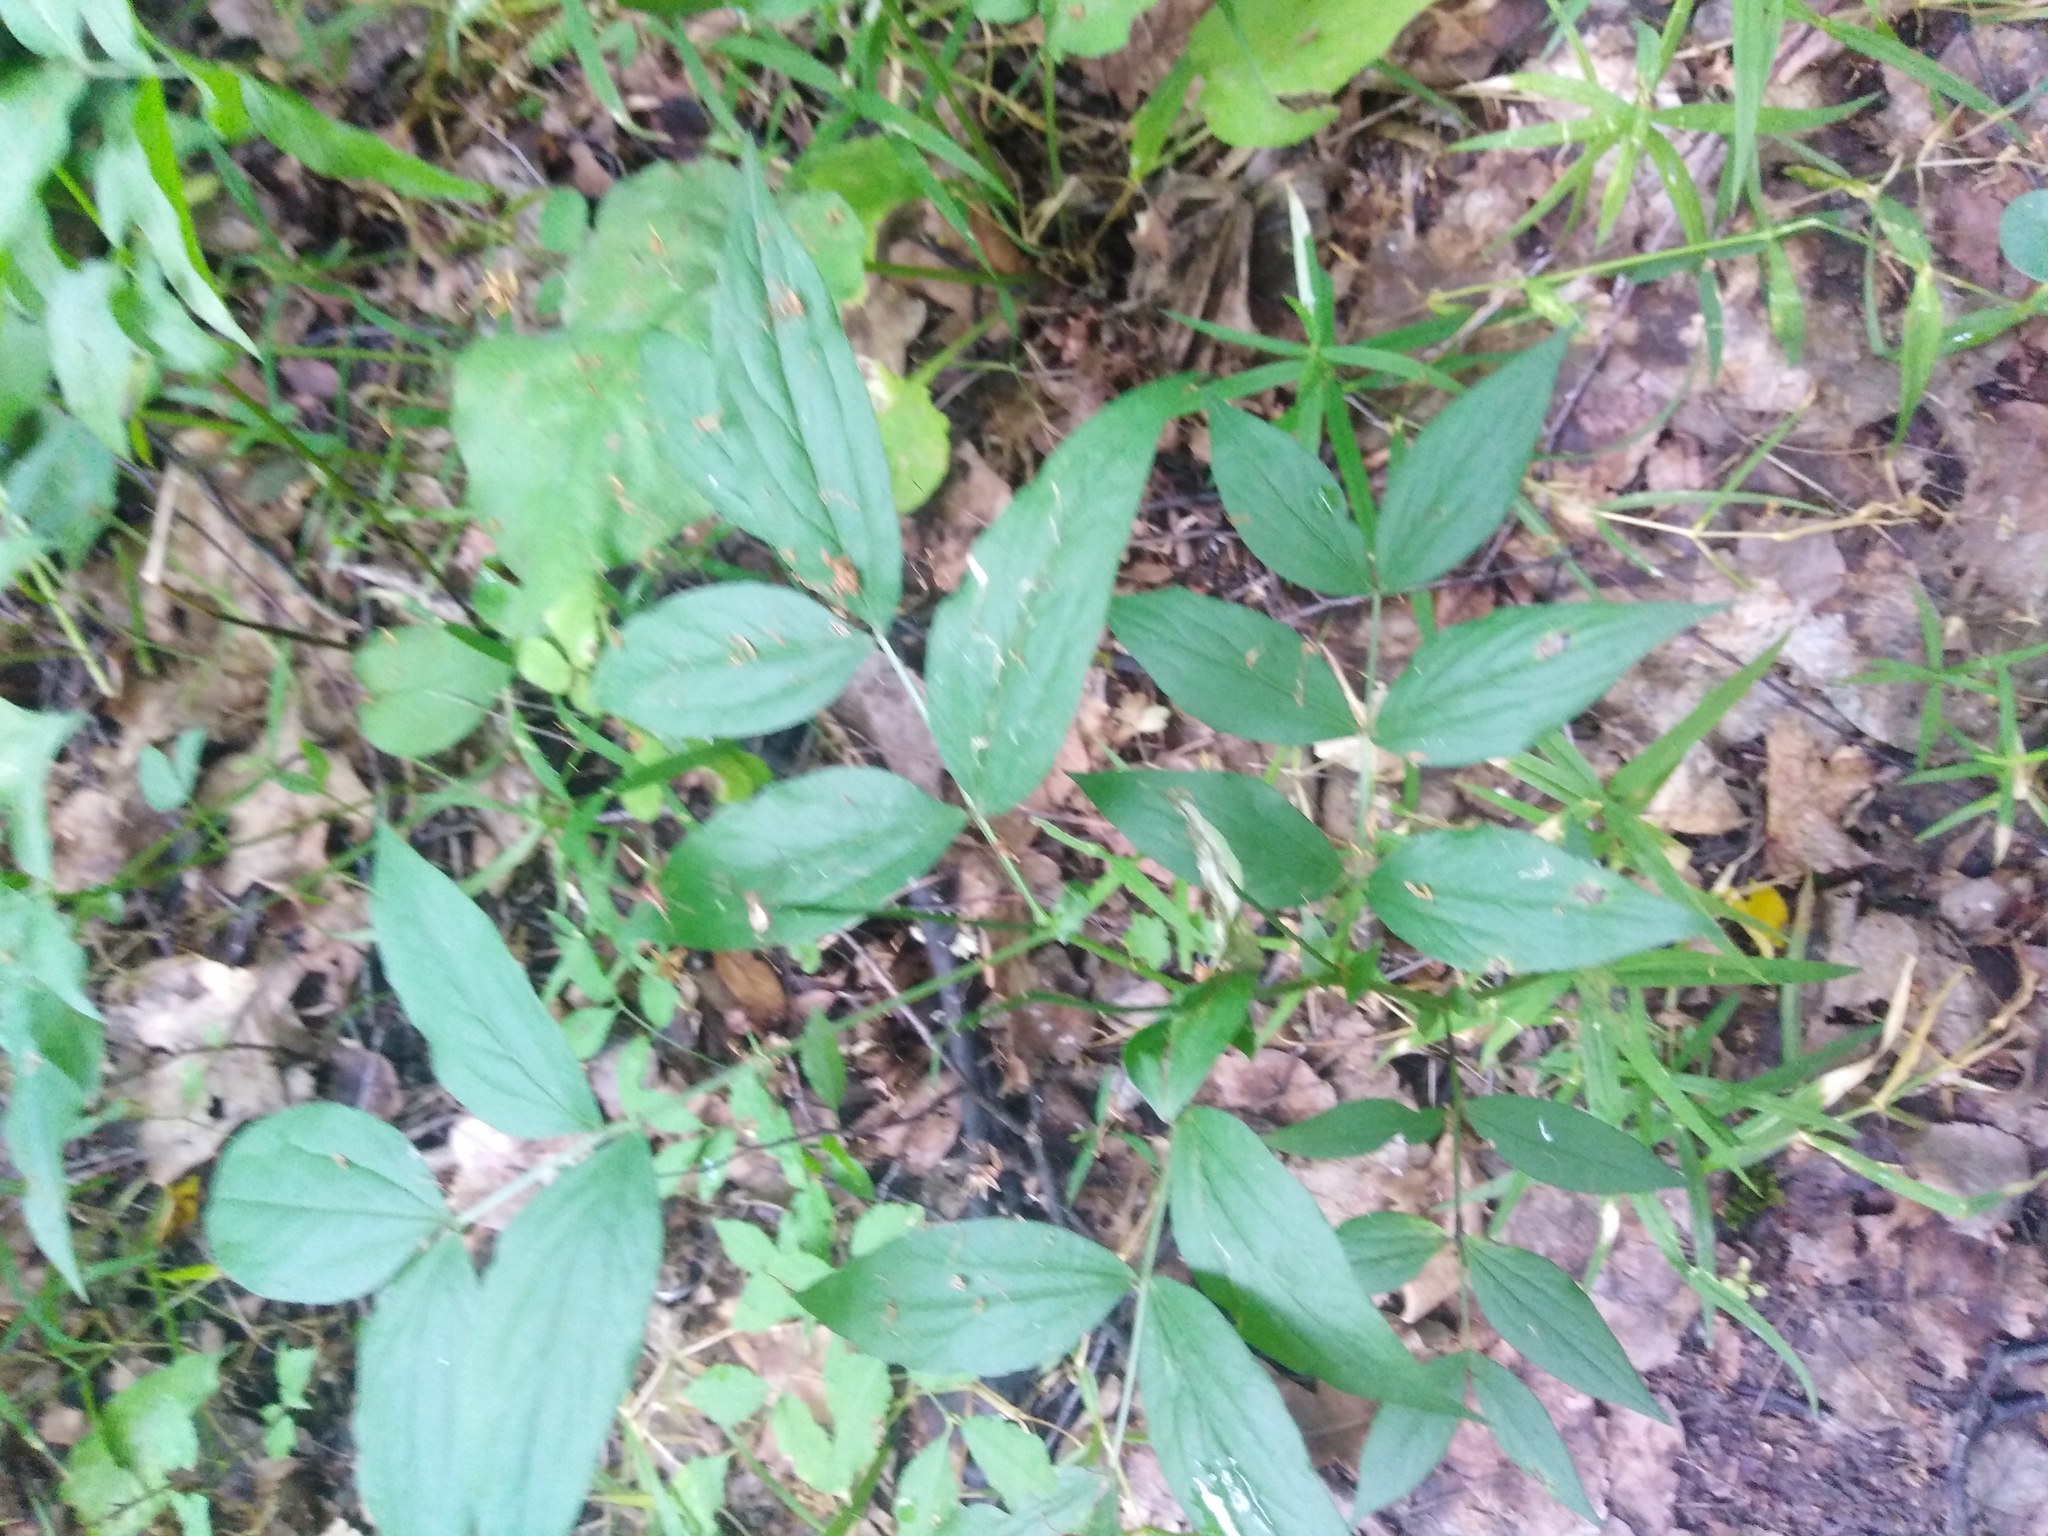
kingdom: Plantae
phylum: Tracheophyta
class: Magnoliopsida
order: Fabales
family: Fabaceae
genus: Lathyrus
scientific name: Lathyrus vernus
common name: Spring pea
